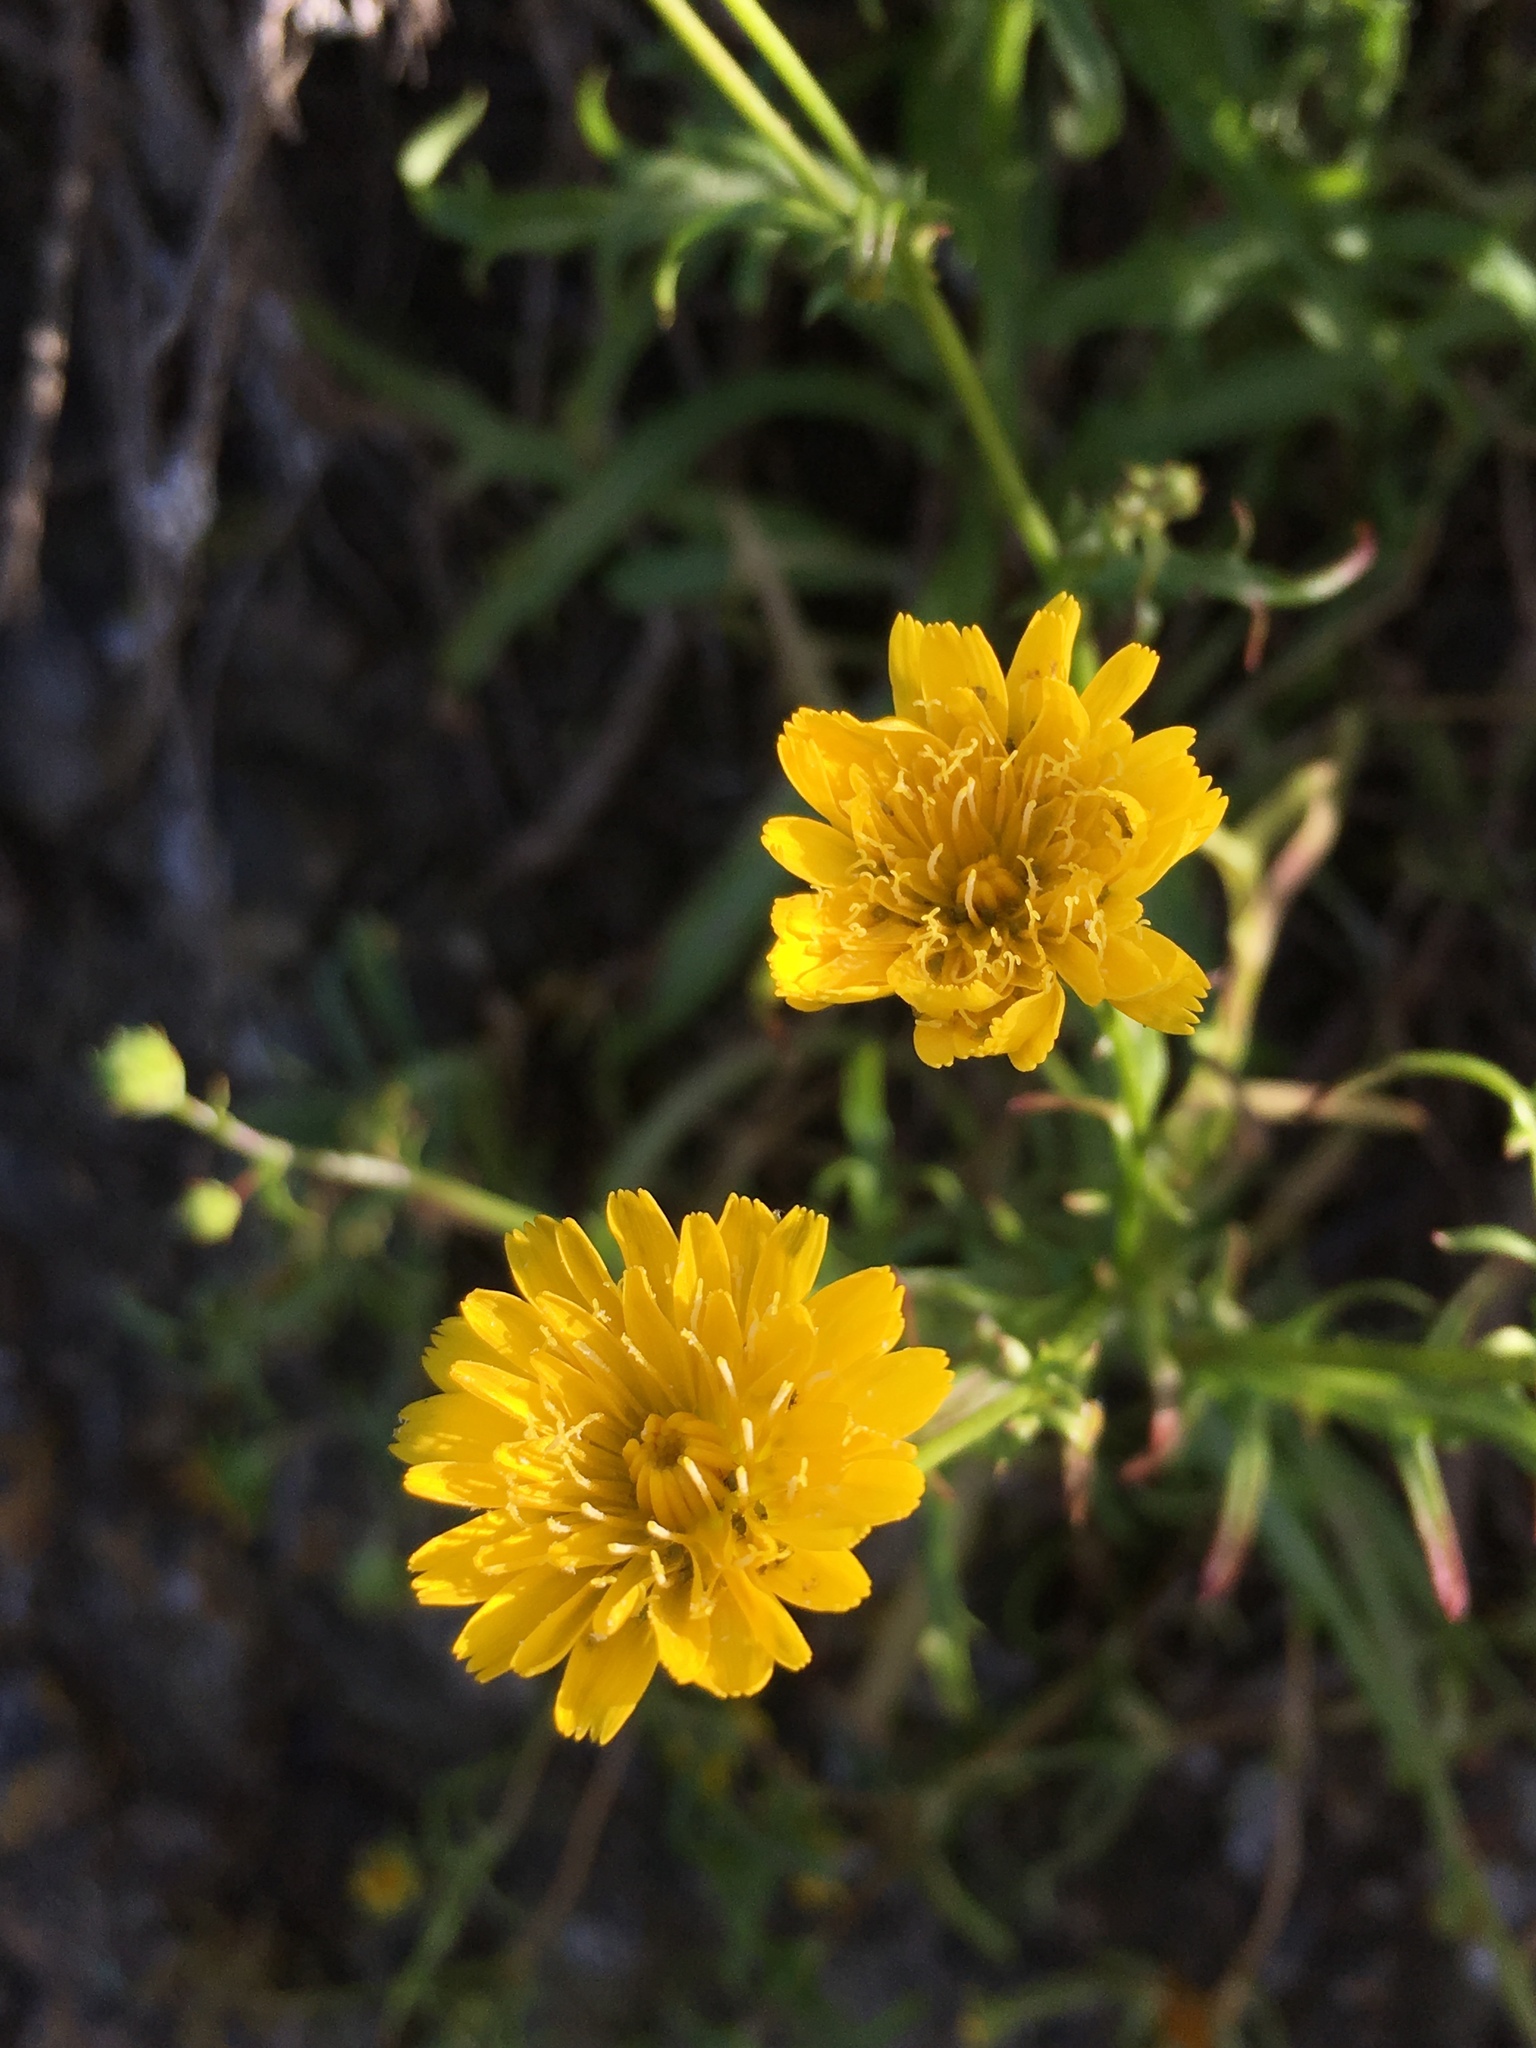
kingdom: Plantae
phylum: Tracheophyta
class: Magnoliopsida
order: Asterales
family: Asteraceae
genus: Malacothrix
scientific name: Malacothrix foliosa
